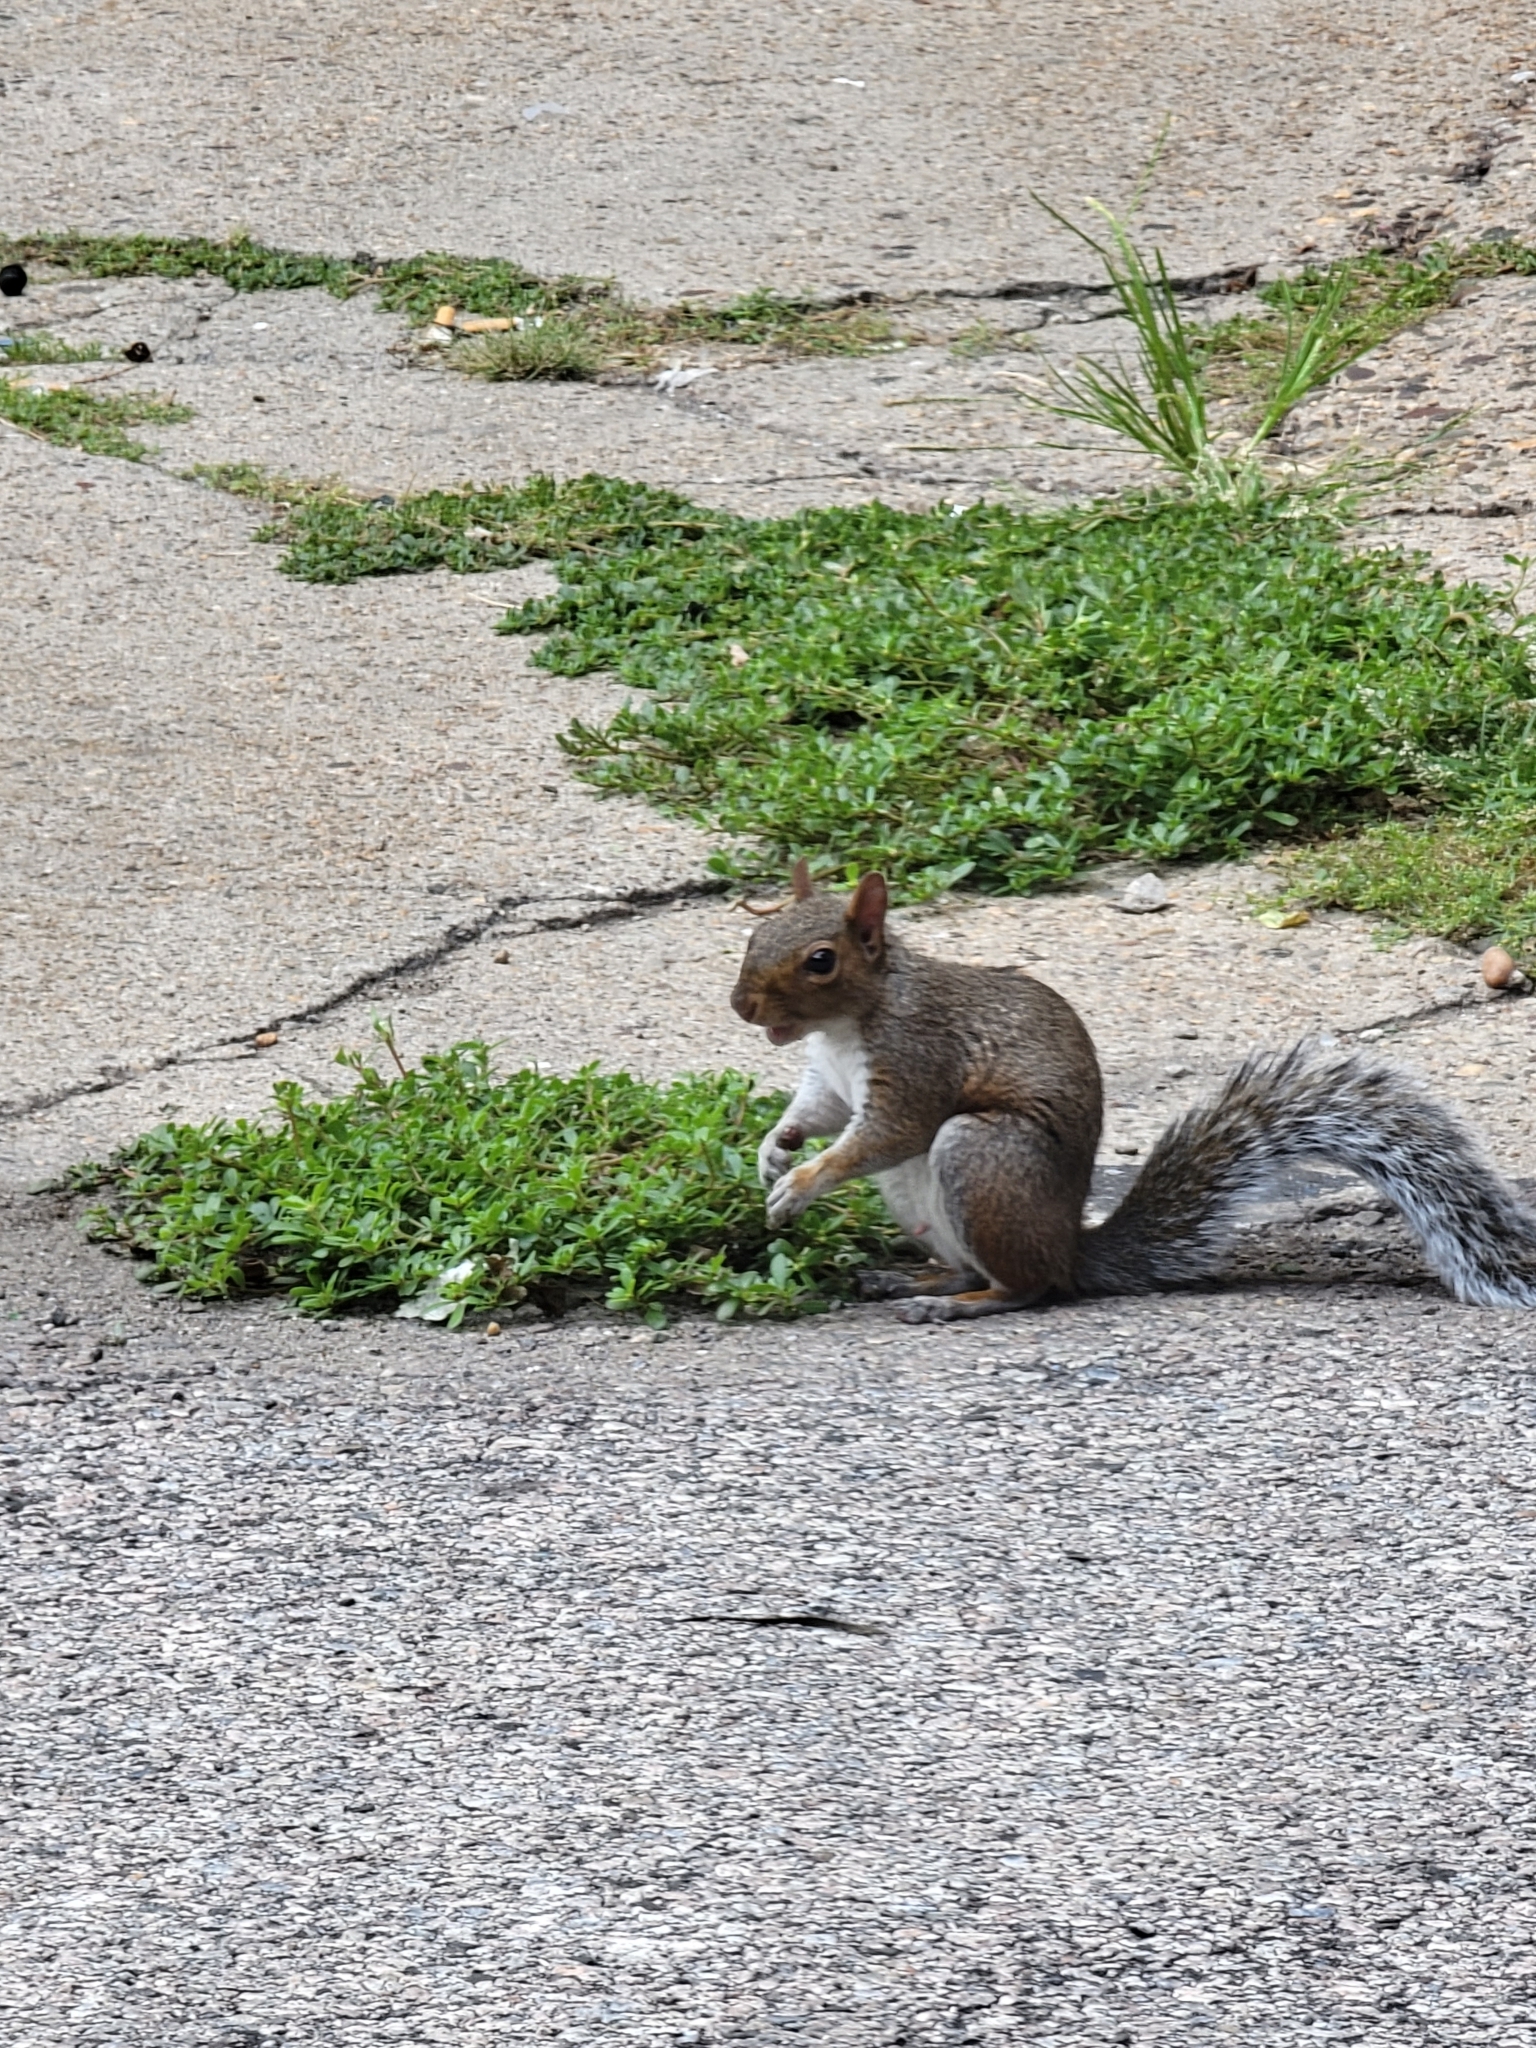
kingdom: Animalia
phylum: Chordata
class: Mammalia
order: Rodentia
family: Sciuridae
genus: Sciurus
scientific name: Sciurus carolinensis
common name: Eastern gray squirrel
